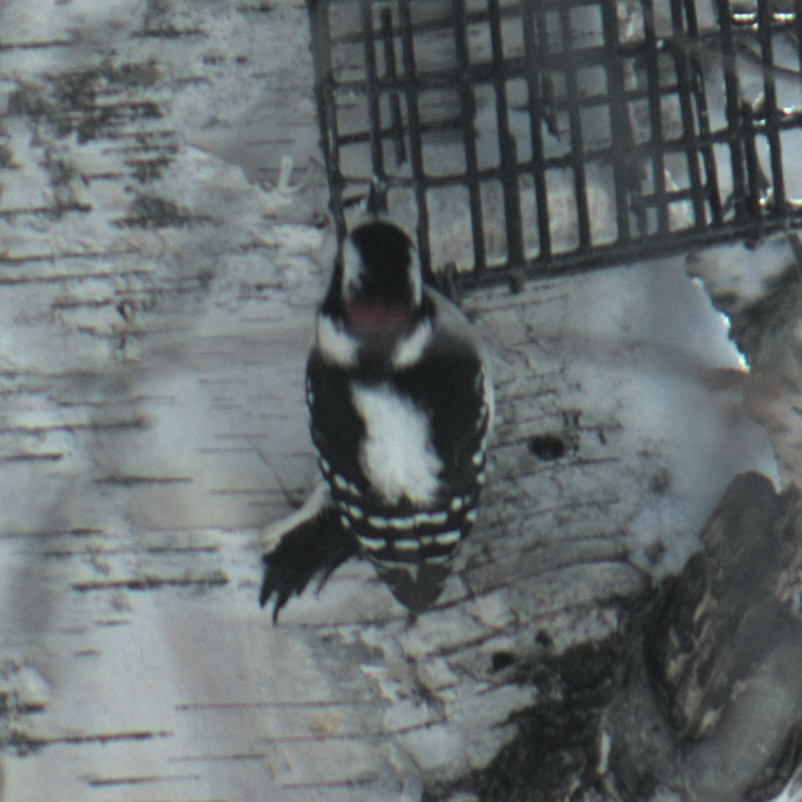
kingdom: Animalia
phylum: Chordata
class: Aves
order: Piciformes
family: Picidae
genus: Dryobates
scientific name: Dryobates pubescens
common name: Downy woodpecker
